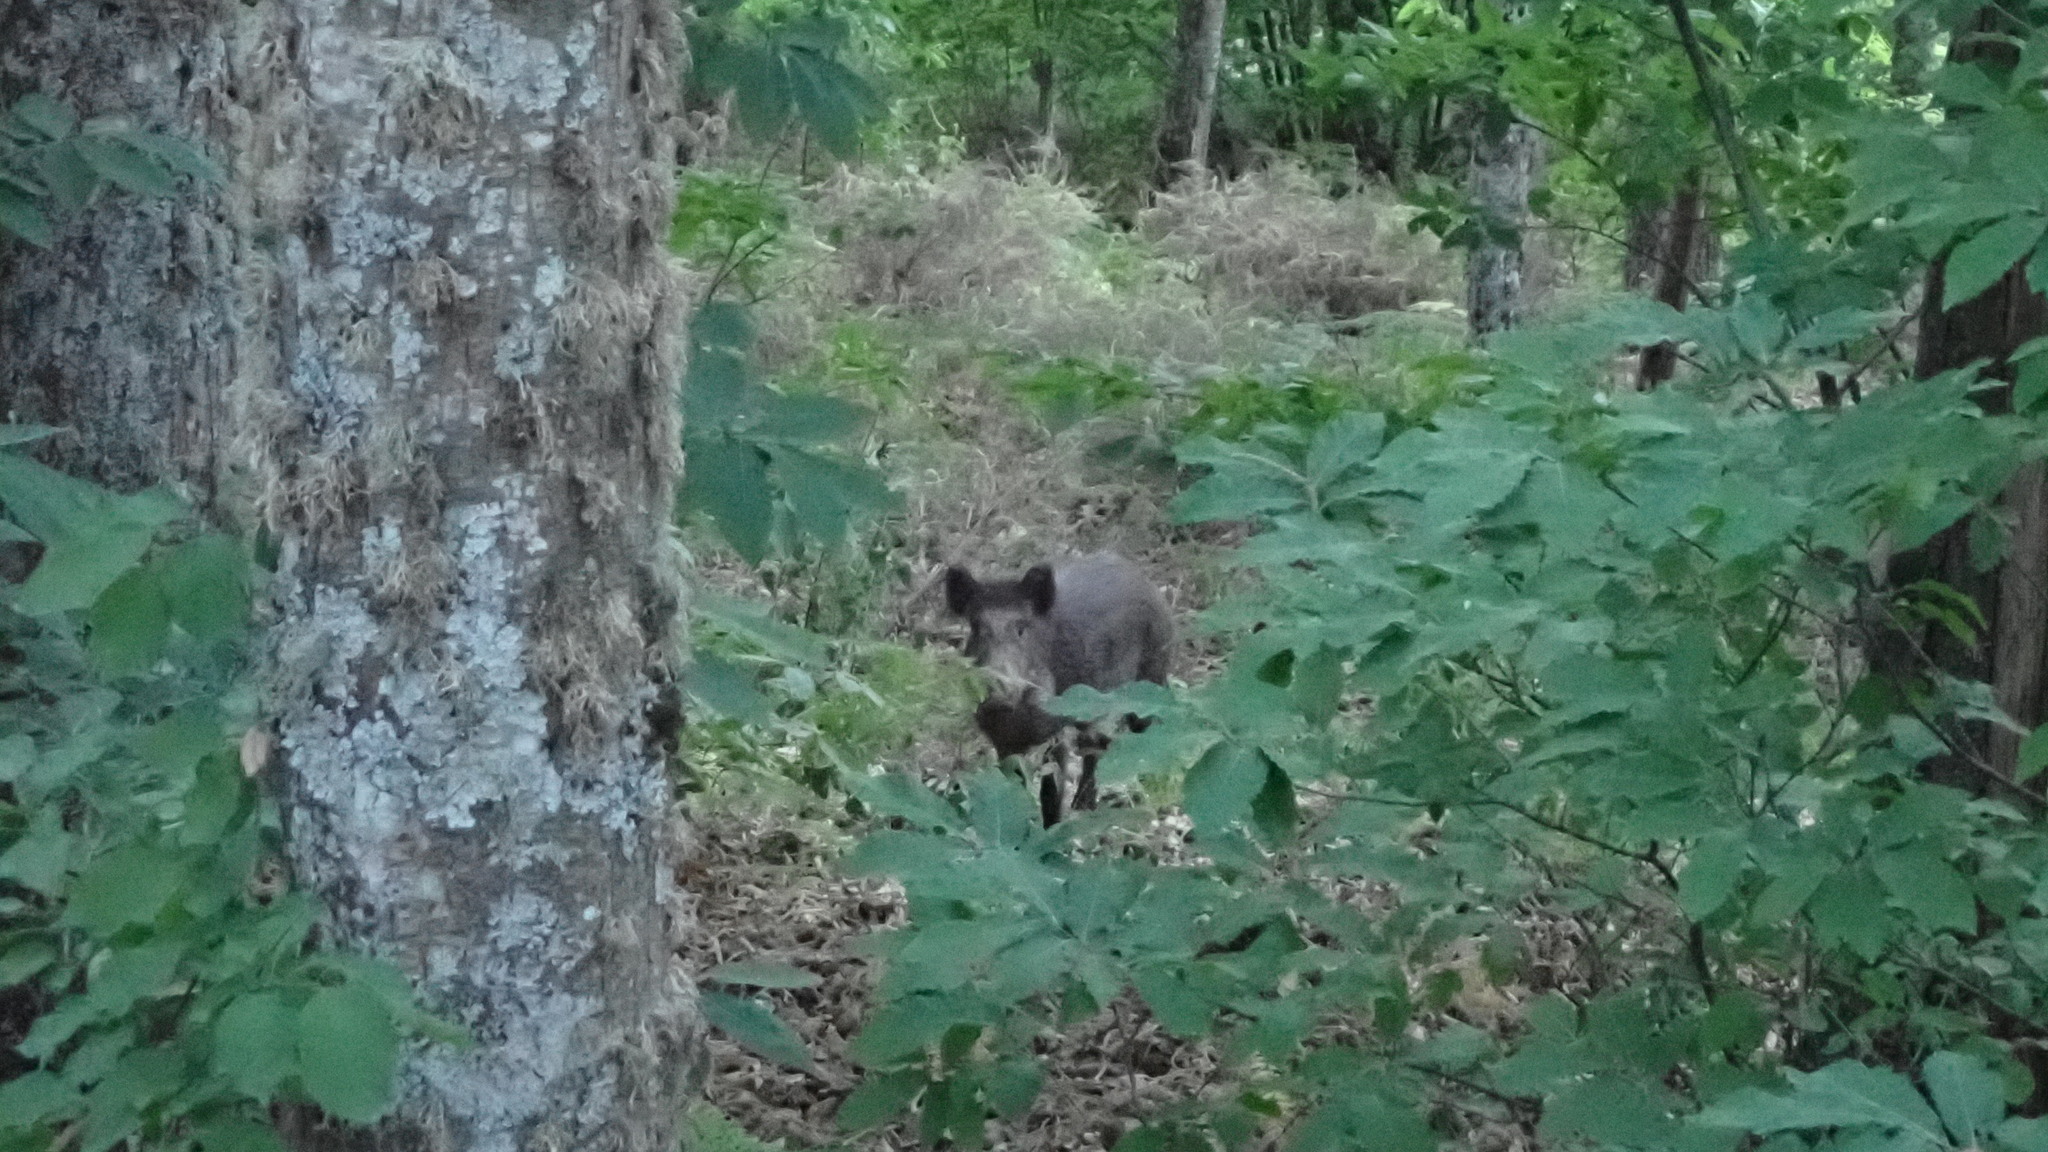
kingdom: Plantae
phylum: Tracheophyta
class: Magnoliopsida
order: Fagales
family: Fagaceae
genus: Castanea
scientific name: Castanea sativa
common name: Sweet chestnut
